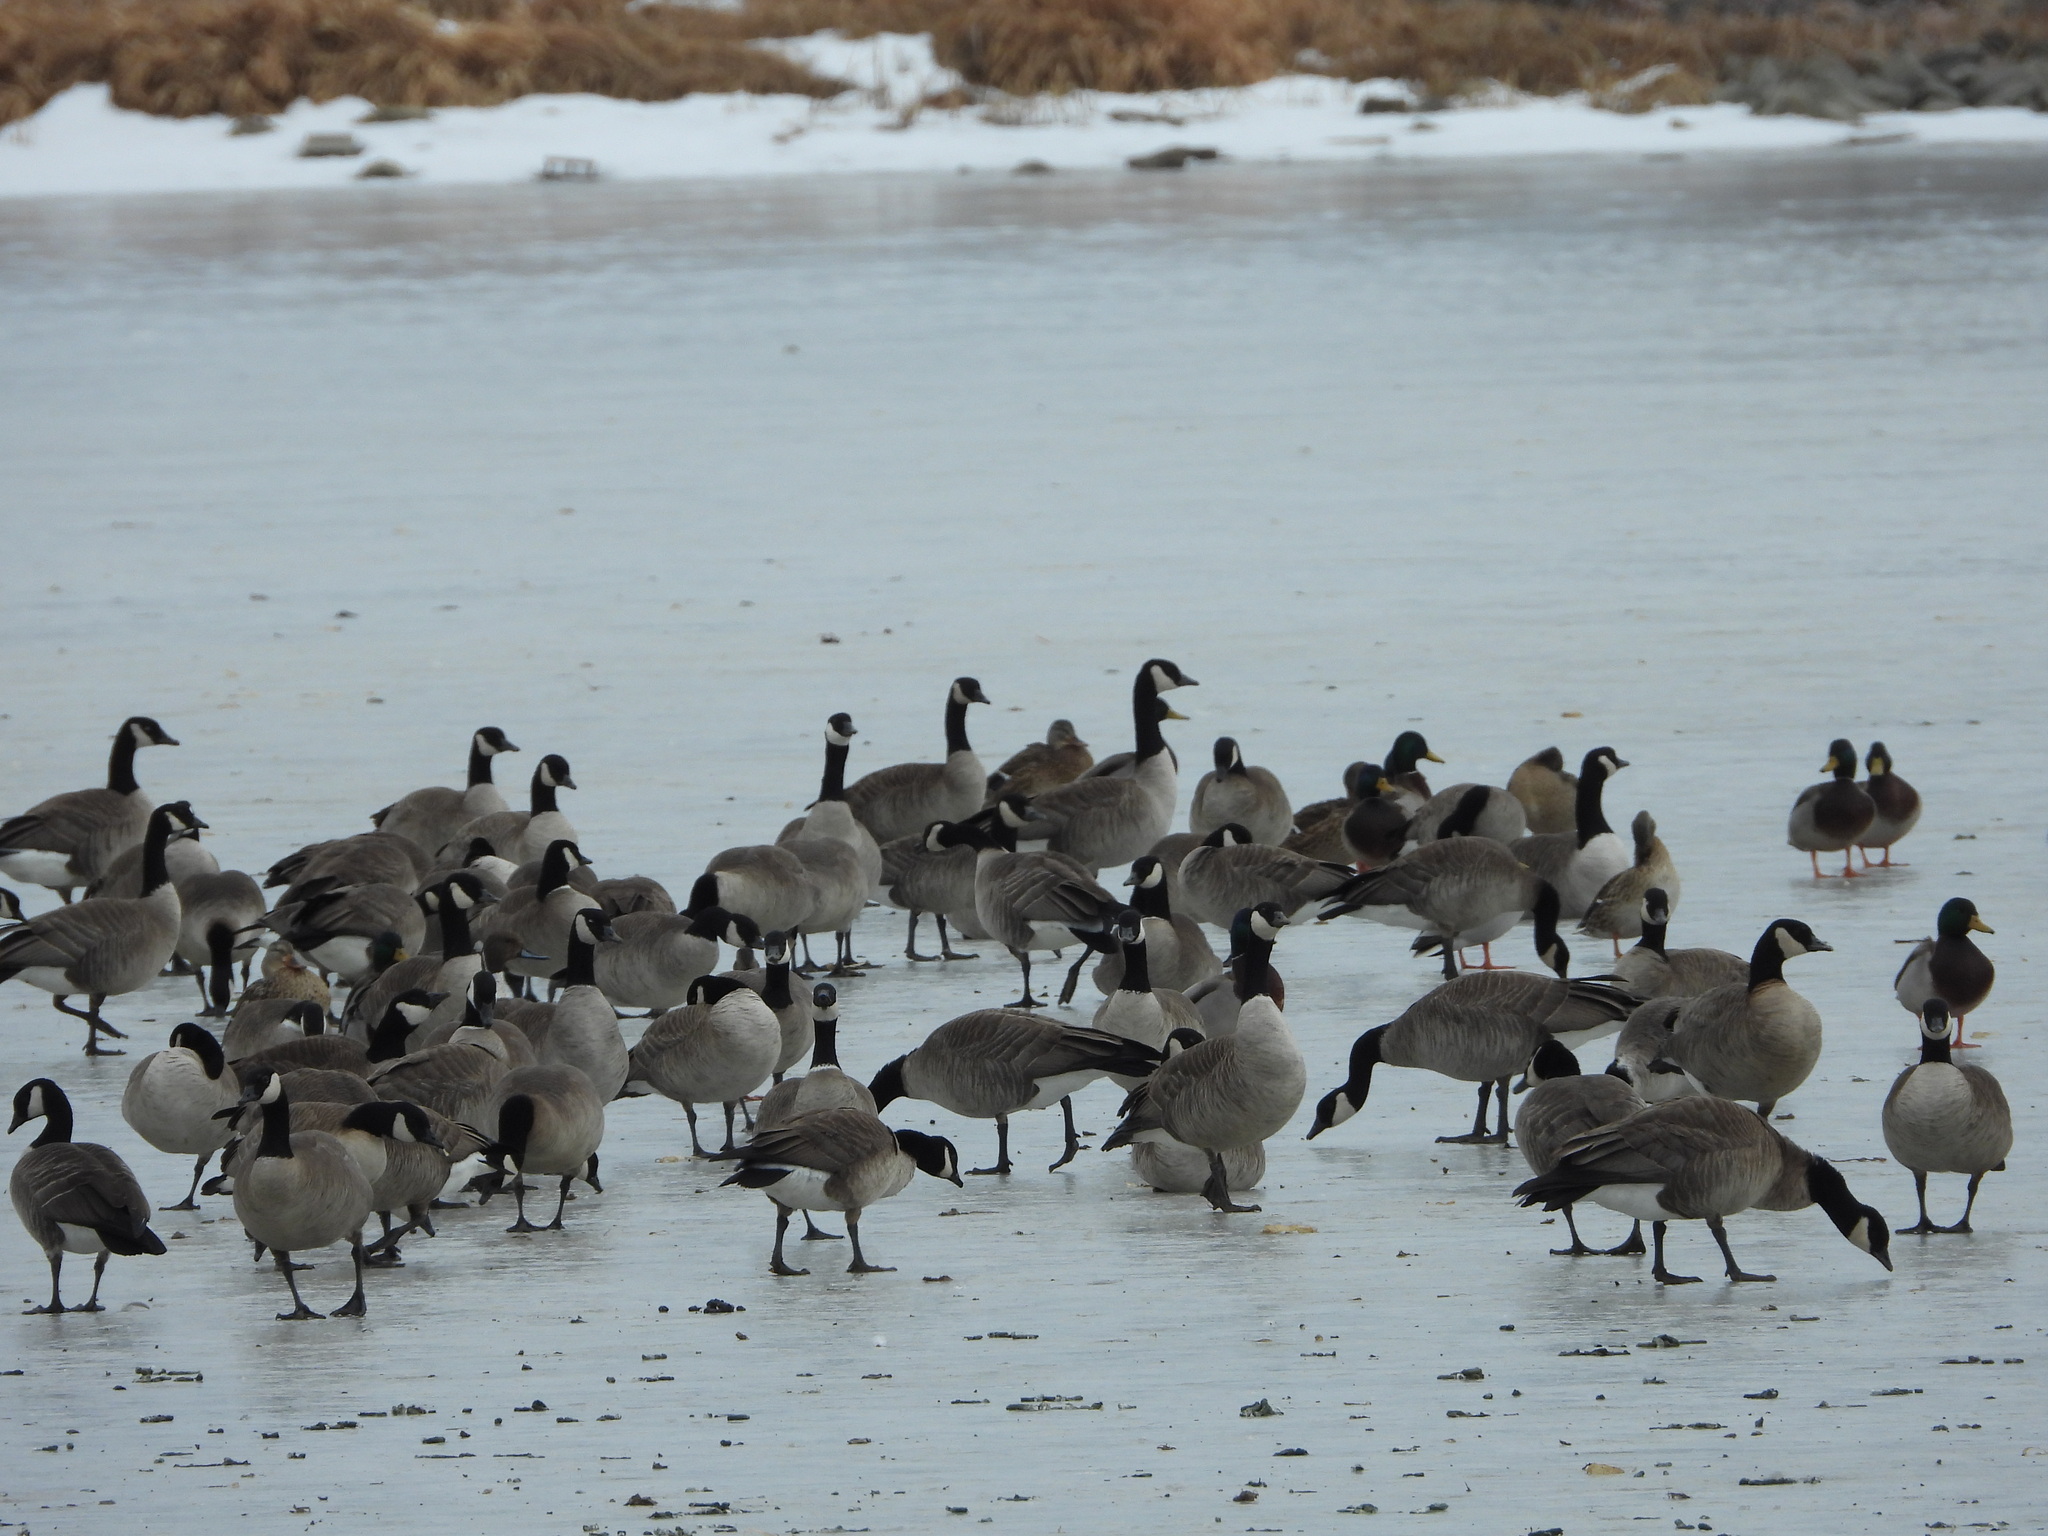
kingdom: Animalia
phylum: Chordata
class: Aves
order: Anseriformes
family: Anatidae
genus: Branta
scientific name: Branta hutchinsii
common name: Cackling goose
